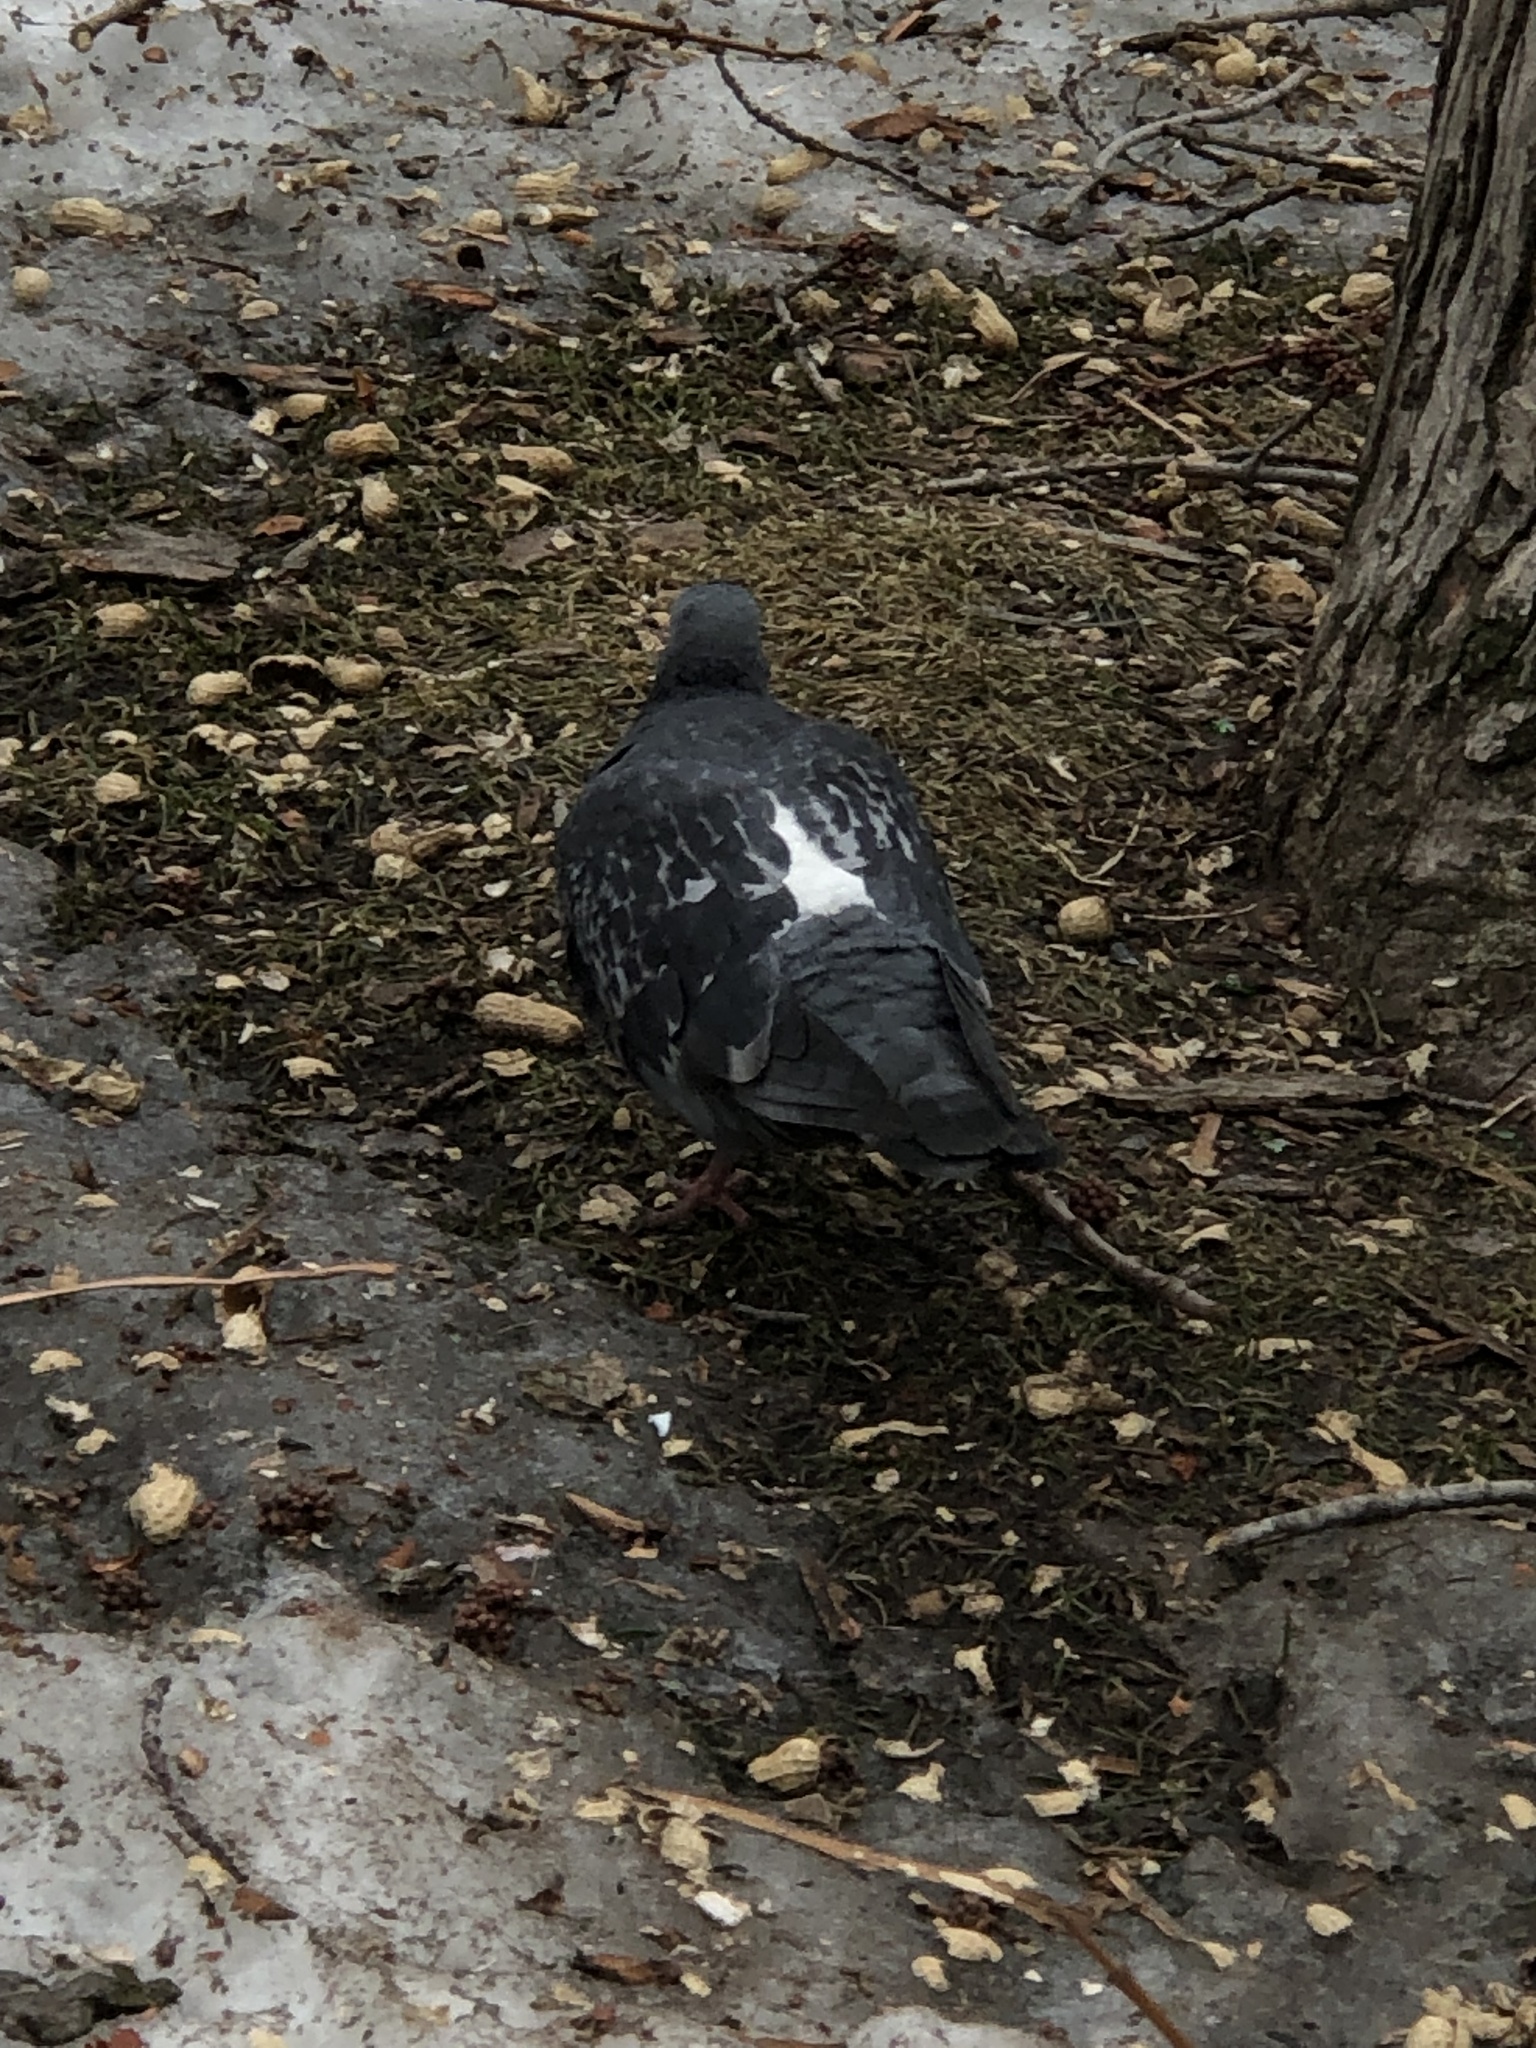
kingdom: Animalia
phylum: Chordata
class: Aves
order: Columbiformes
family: Columbidae
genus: Columba
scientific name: Columba livia
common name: Rock pigeon
